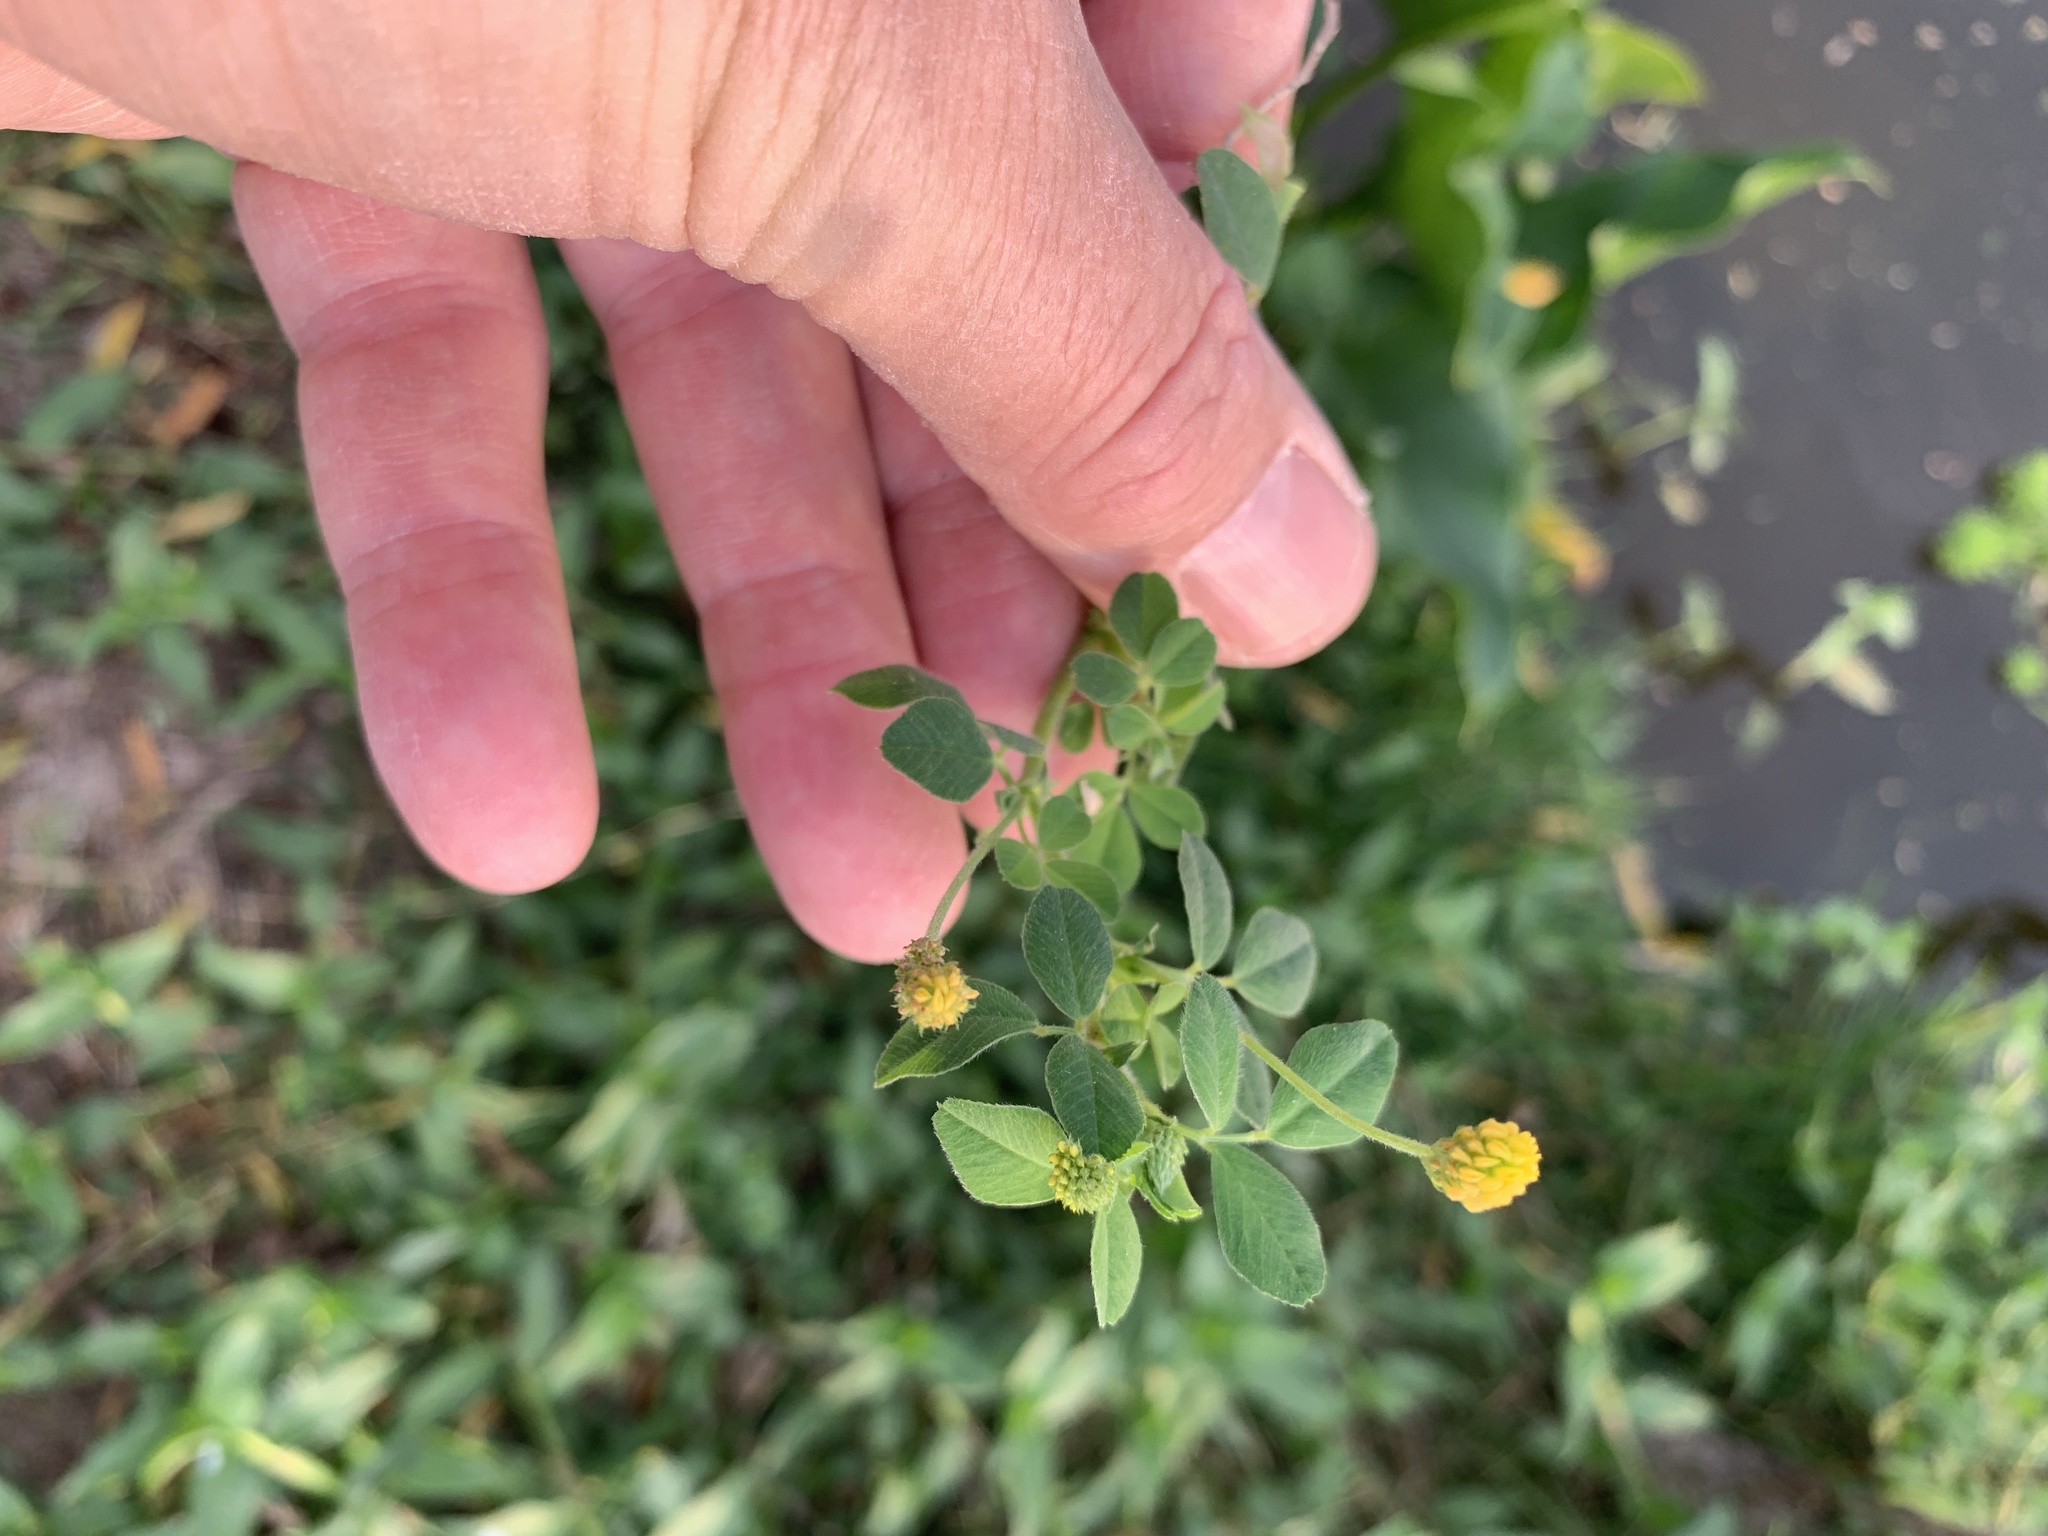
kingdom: Plantae
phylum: Tracheophyta
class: Magnoliopsida
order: Fabales
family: Fabaceae
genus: Medicago
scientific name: Medicago lupulina
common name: Black medick
